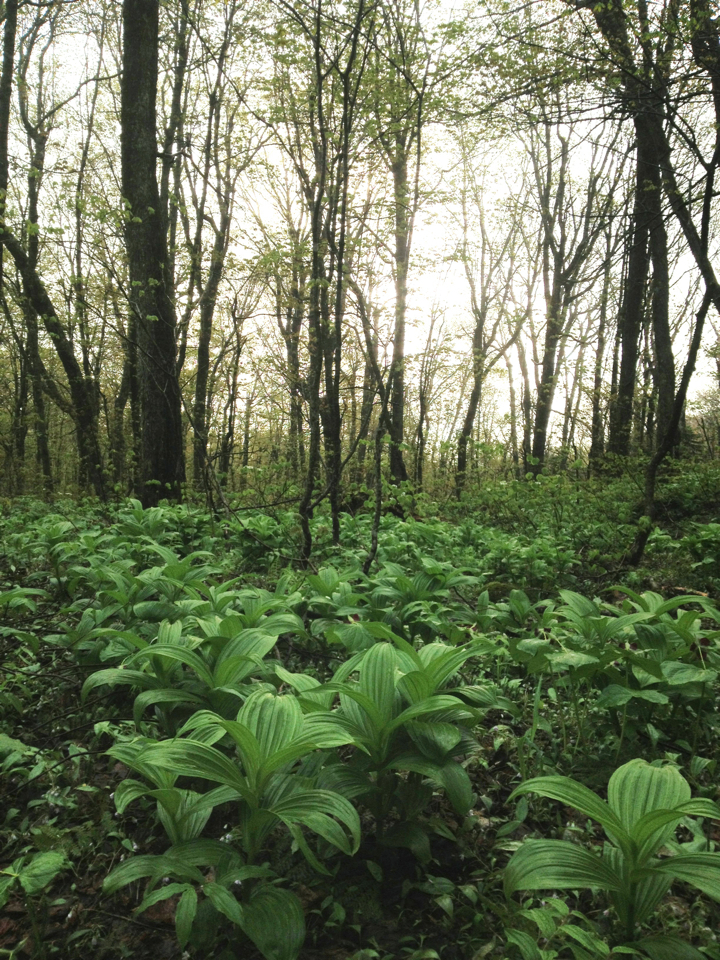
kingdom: Plantae
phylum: Tracheophyta
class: Liliopsida
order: Liliales
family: Melanthiaceae
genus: Veratrum
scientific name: Veratrum viride
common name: American false hellebore
